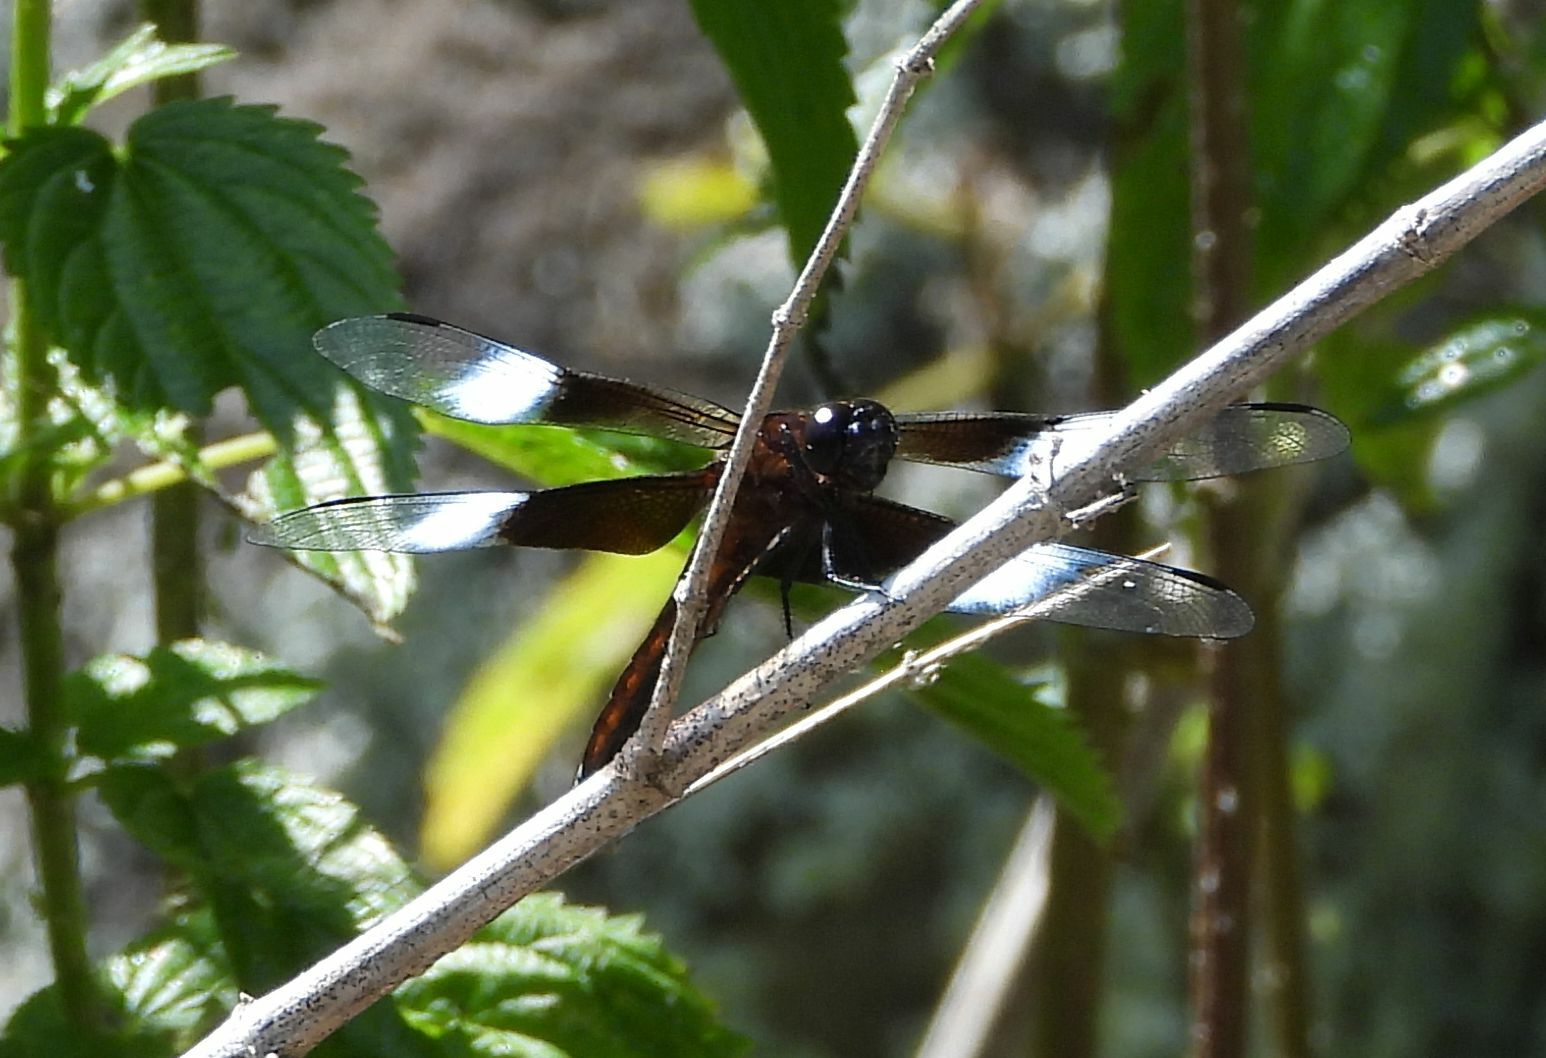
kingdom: Animalia
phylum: Arthropoda
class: Insecta
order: Odonata
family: Libellulidae
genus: Libellula
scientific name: Libellula luctuosa
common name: Widow skimmer
